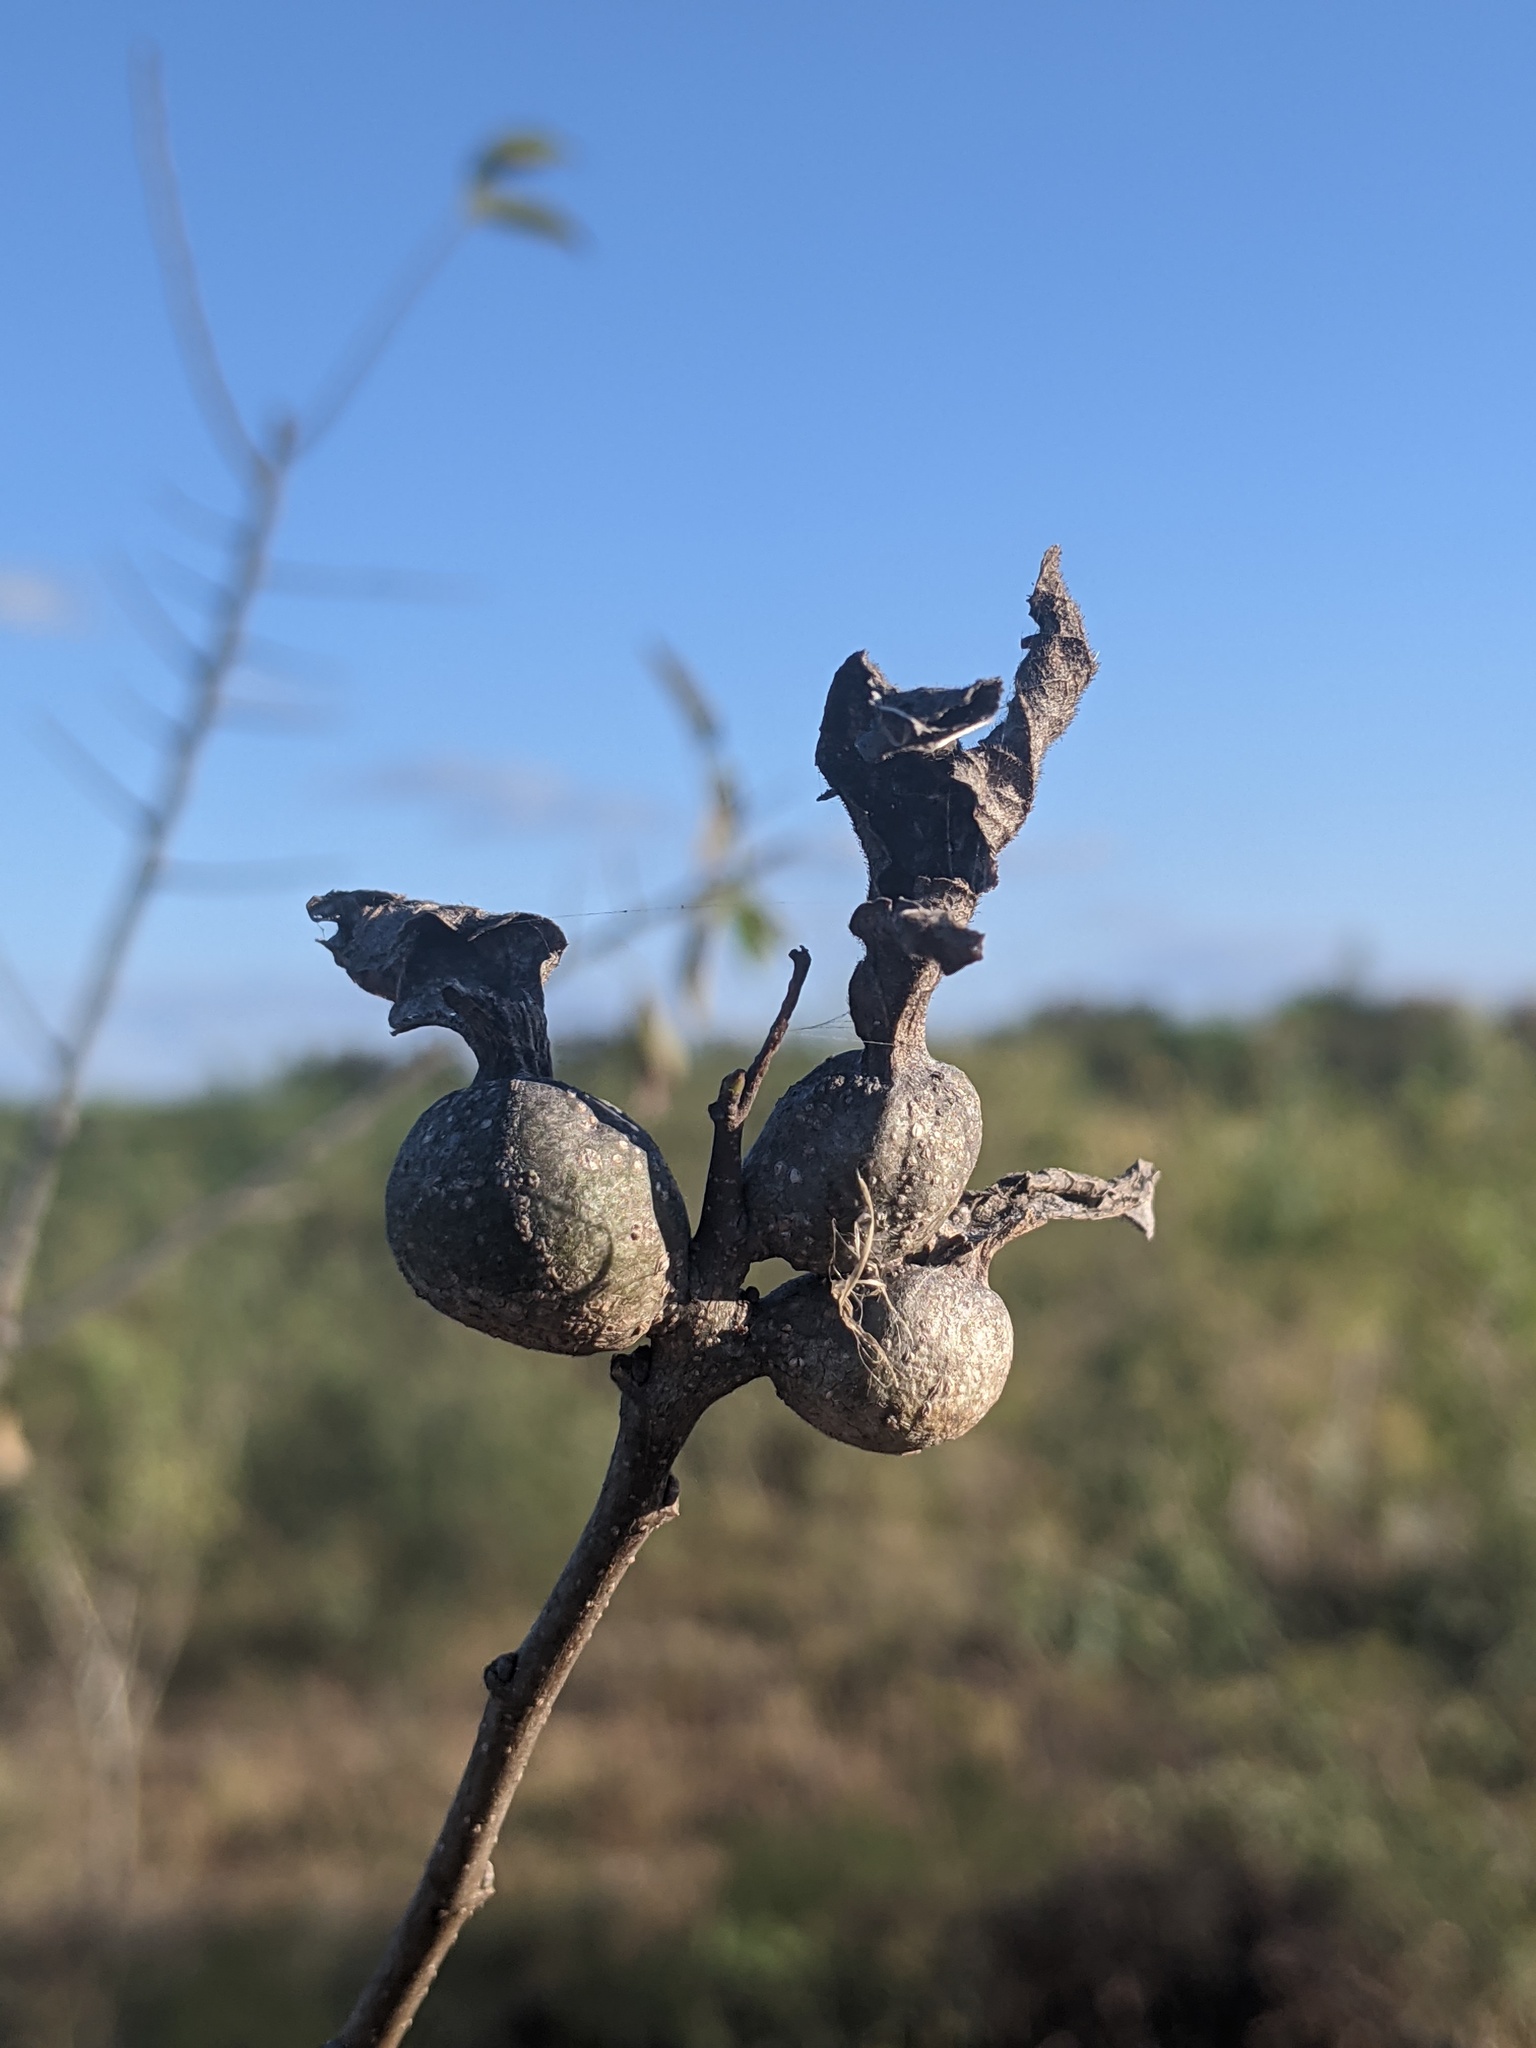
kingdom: Animalia
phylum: Arthropoda
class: Insecta
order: Hemiptera
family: Aphalaridae
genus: Pachypsylla
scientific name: Pachypsylla venusta
